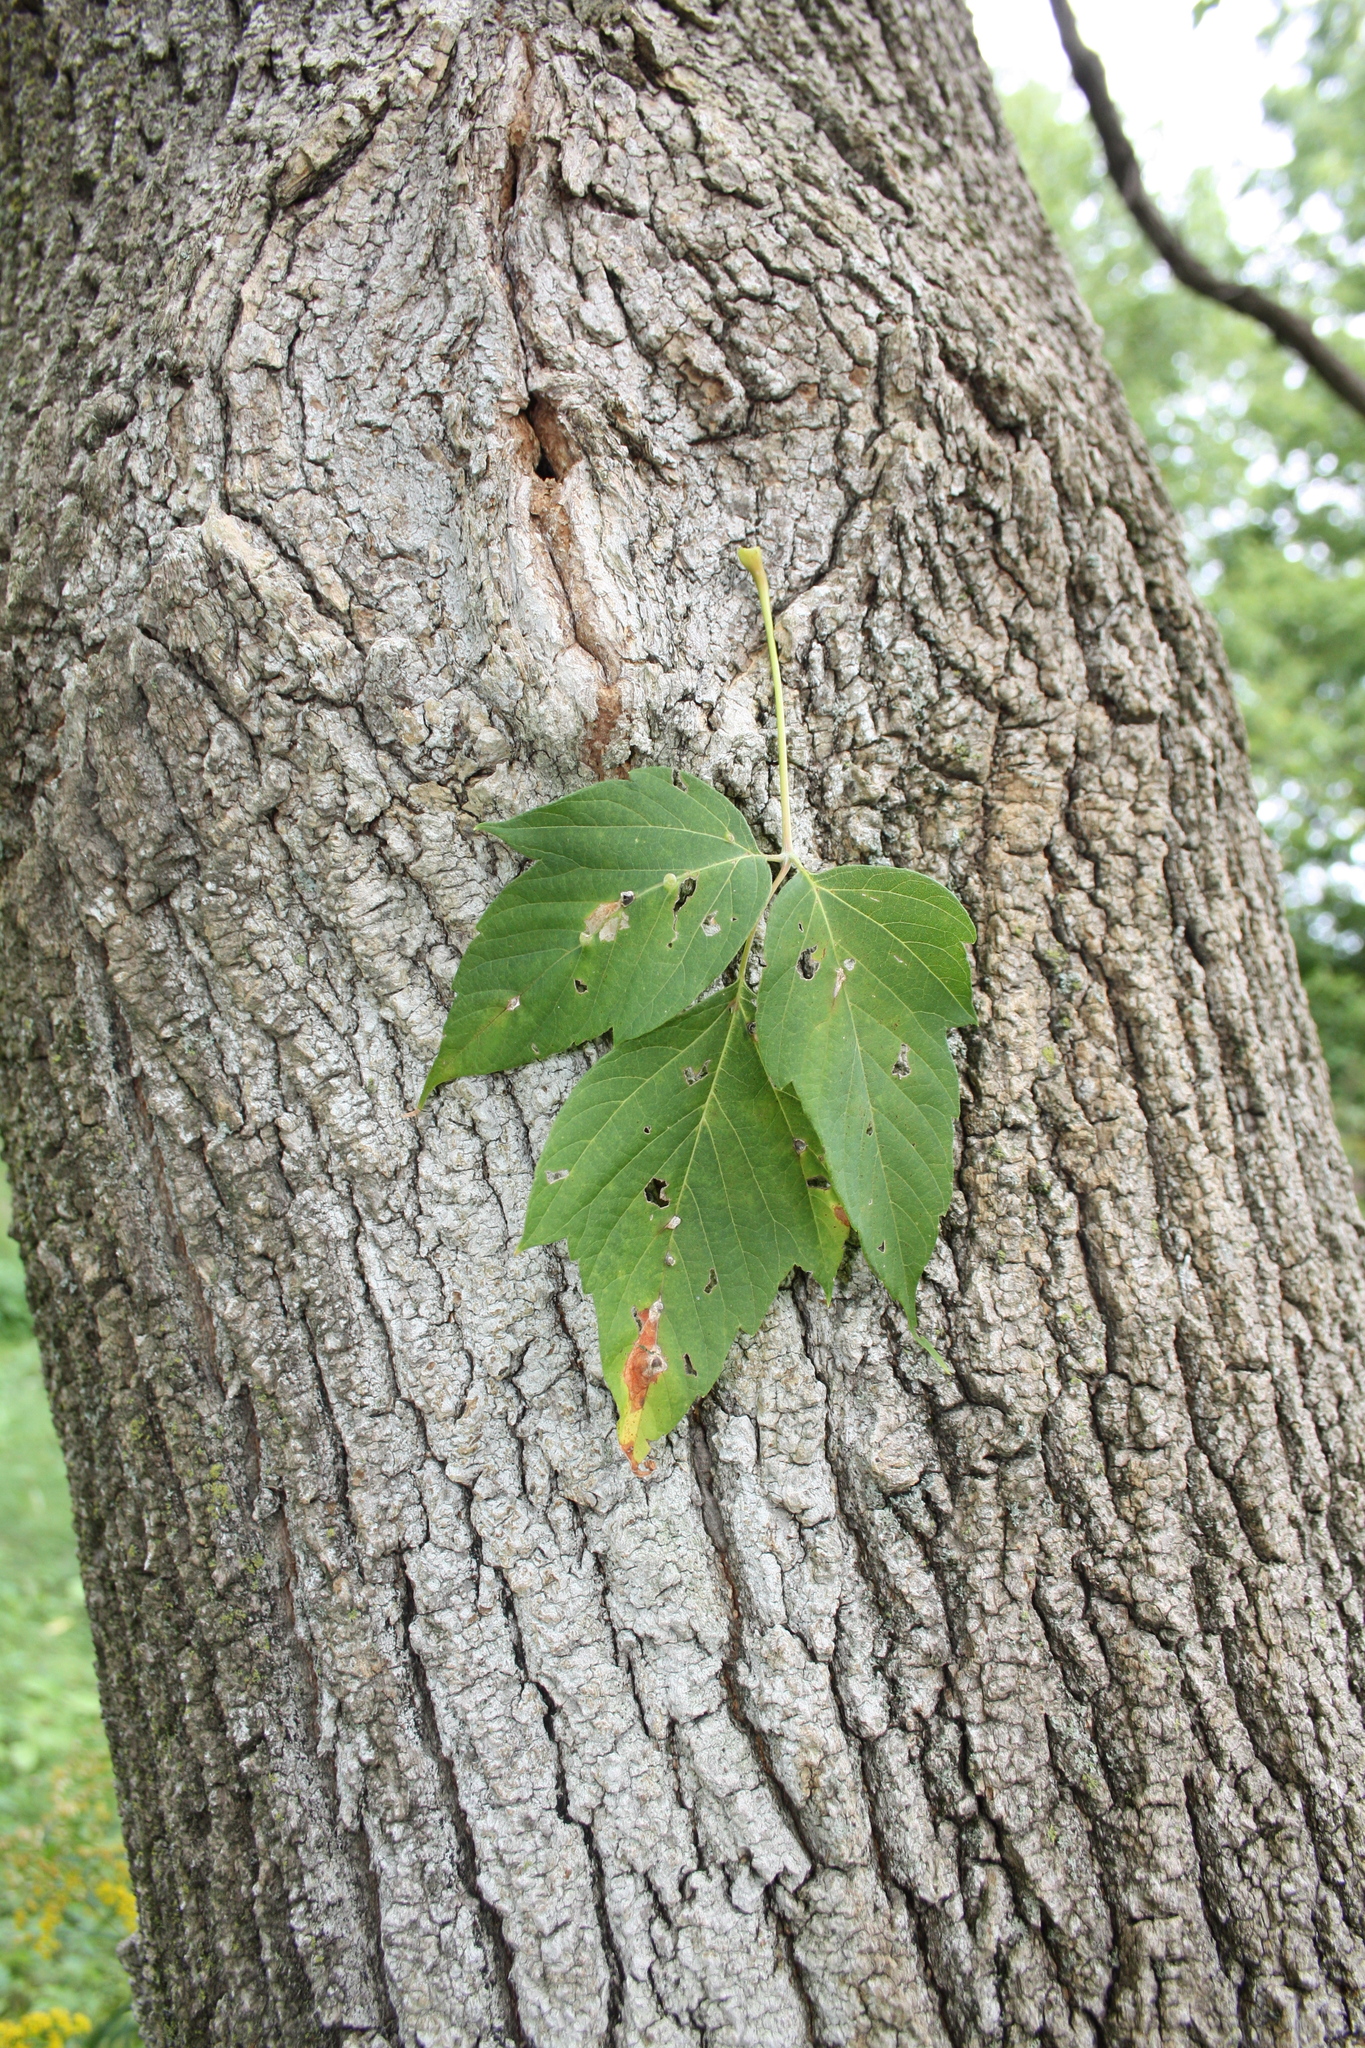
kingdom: Plantae
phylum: Tracheophyta
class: Magnoliopsida
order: Sapindales
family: Sapindaceae
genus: Acer
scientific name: Acer negundo
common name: Ashleaf maple
